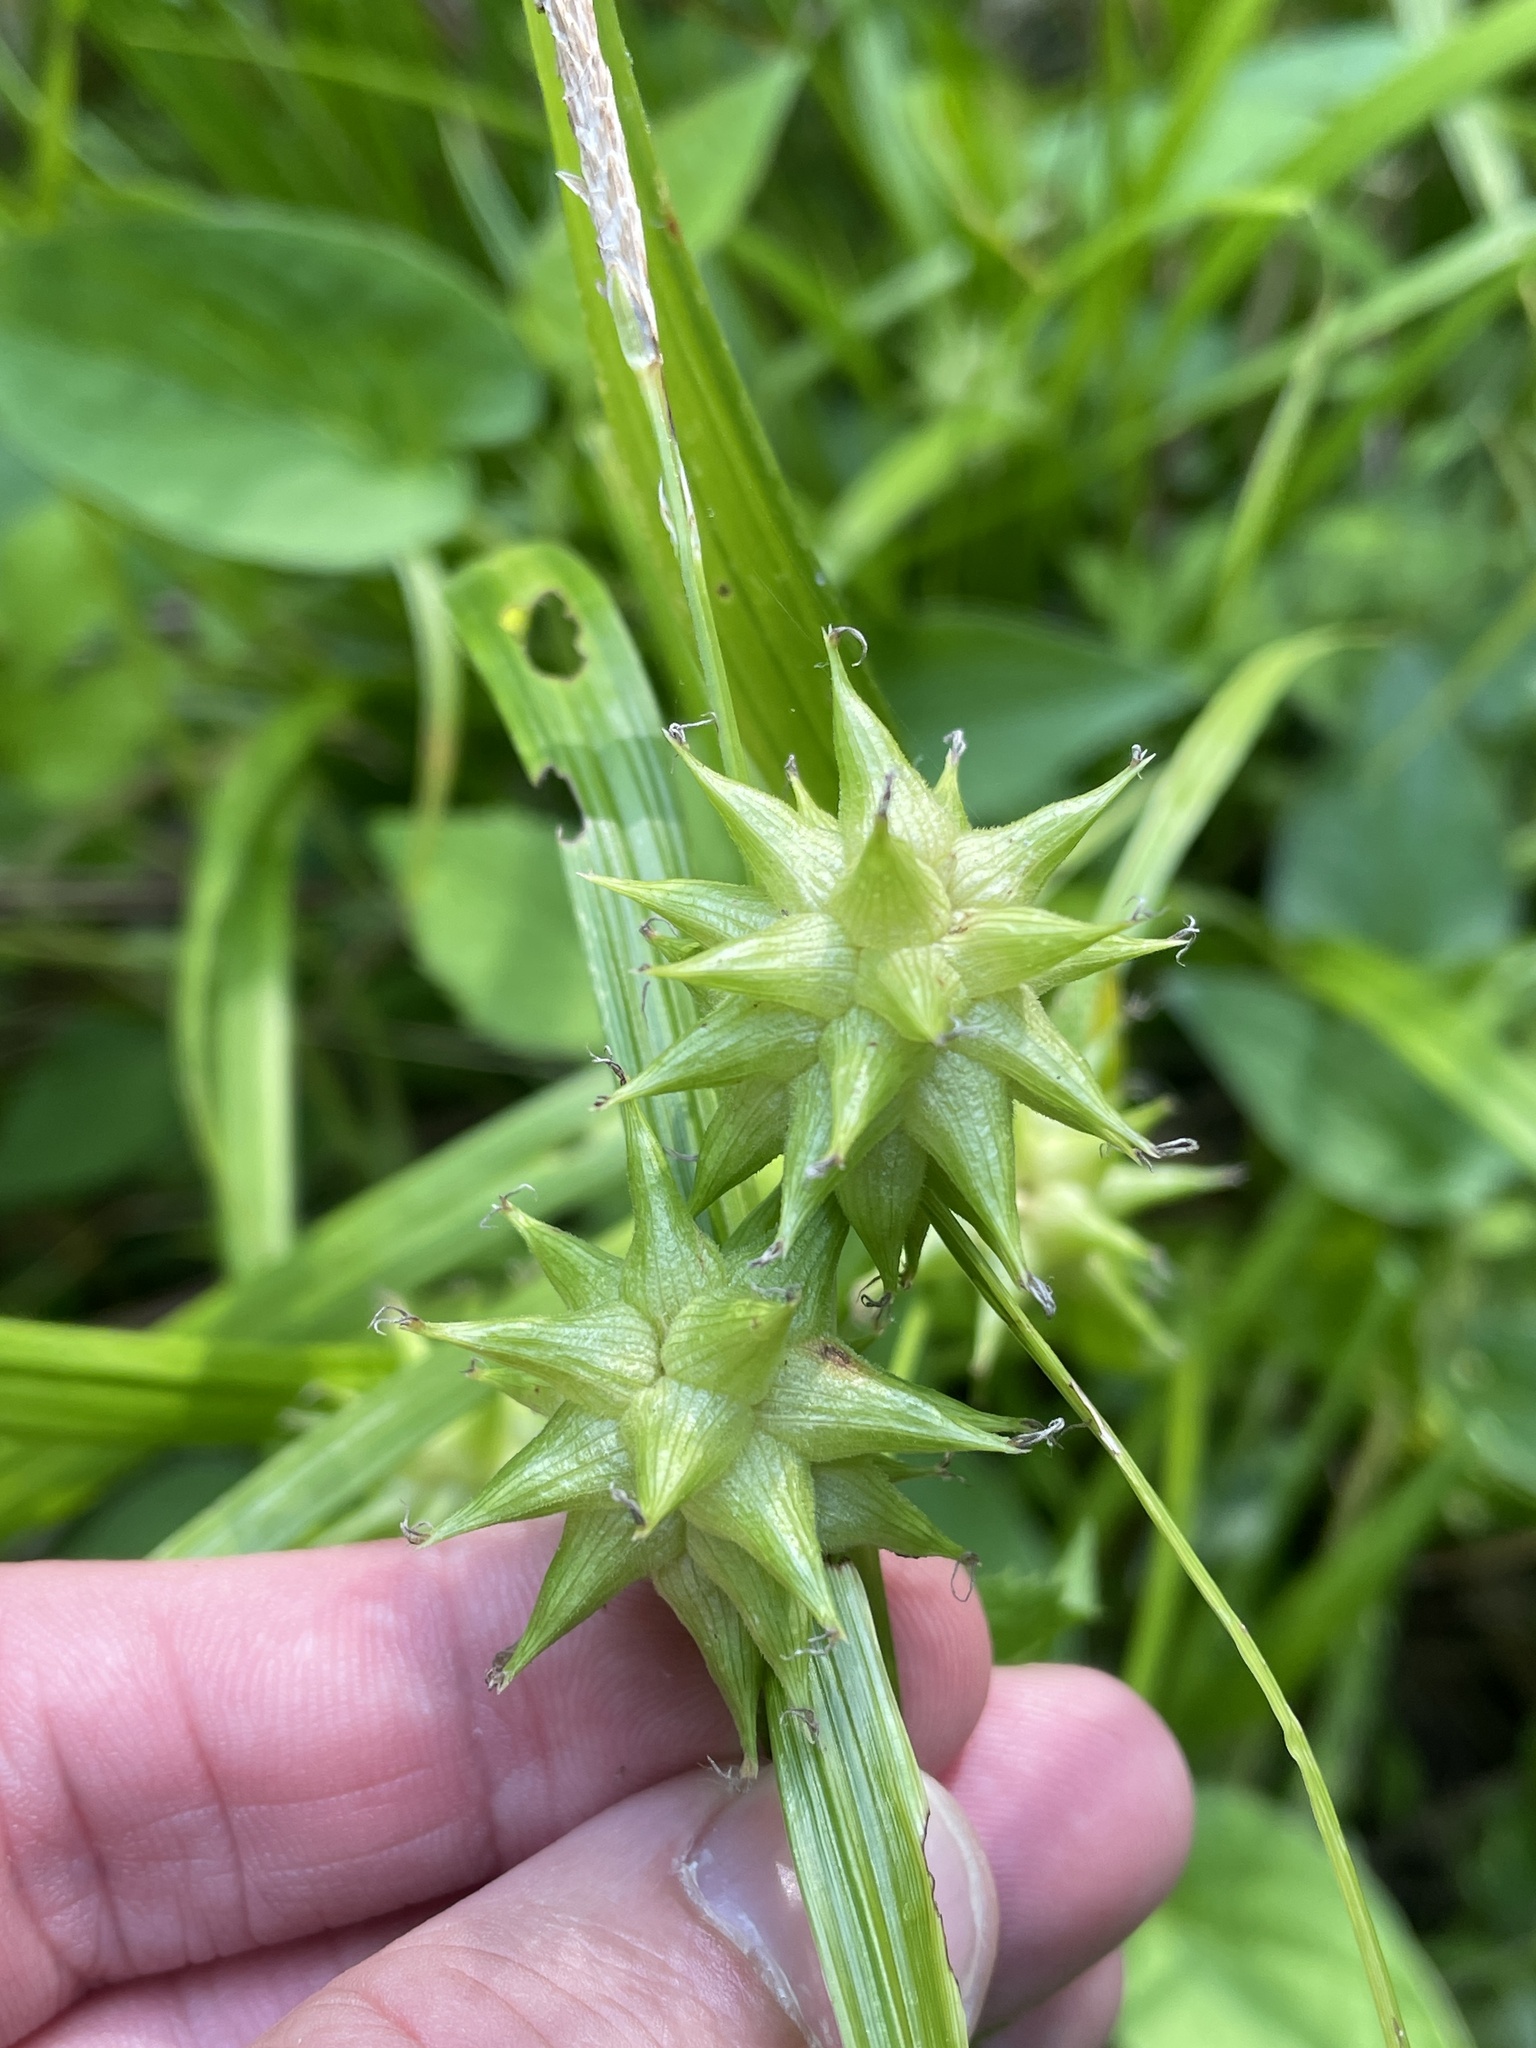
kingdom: Plantae
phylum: Tracheophyta
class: Liliopsida
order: Poales
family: Cyperaceae
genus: Carex
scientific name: Carex grayi
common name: Asa gray's sedge
